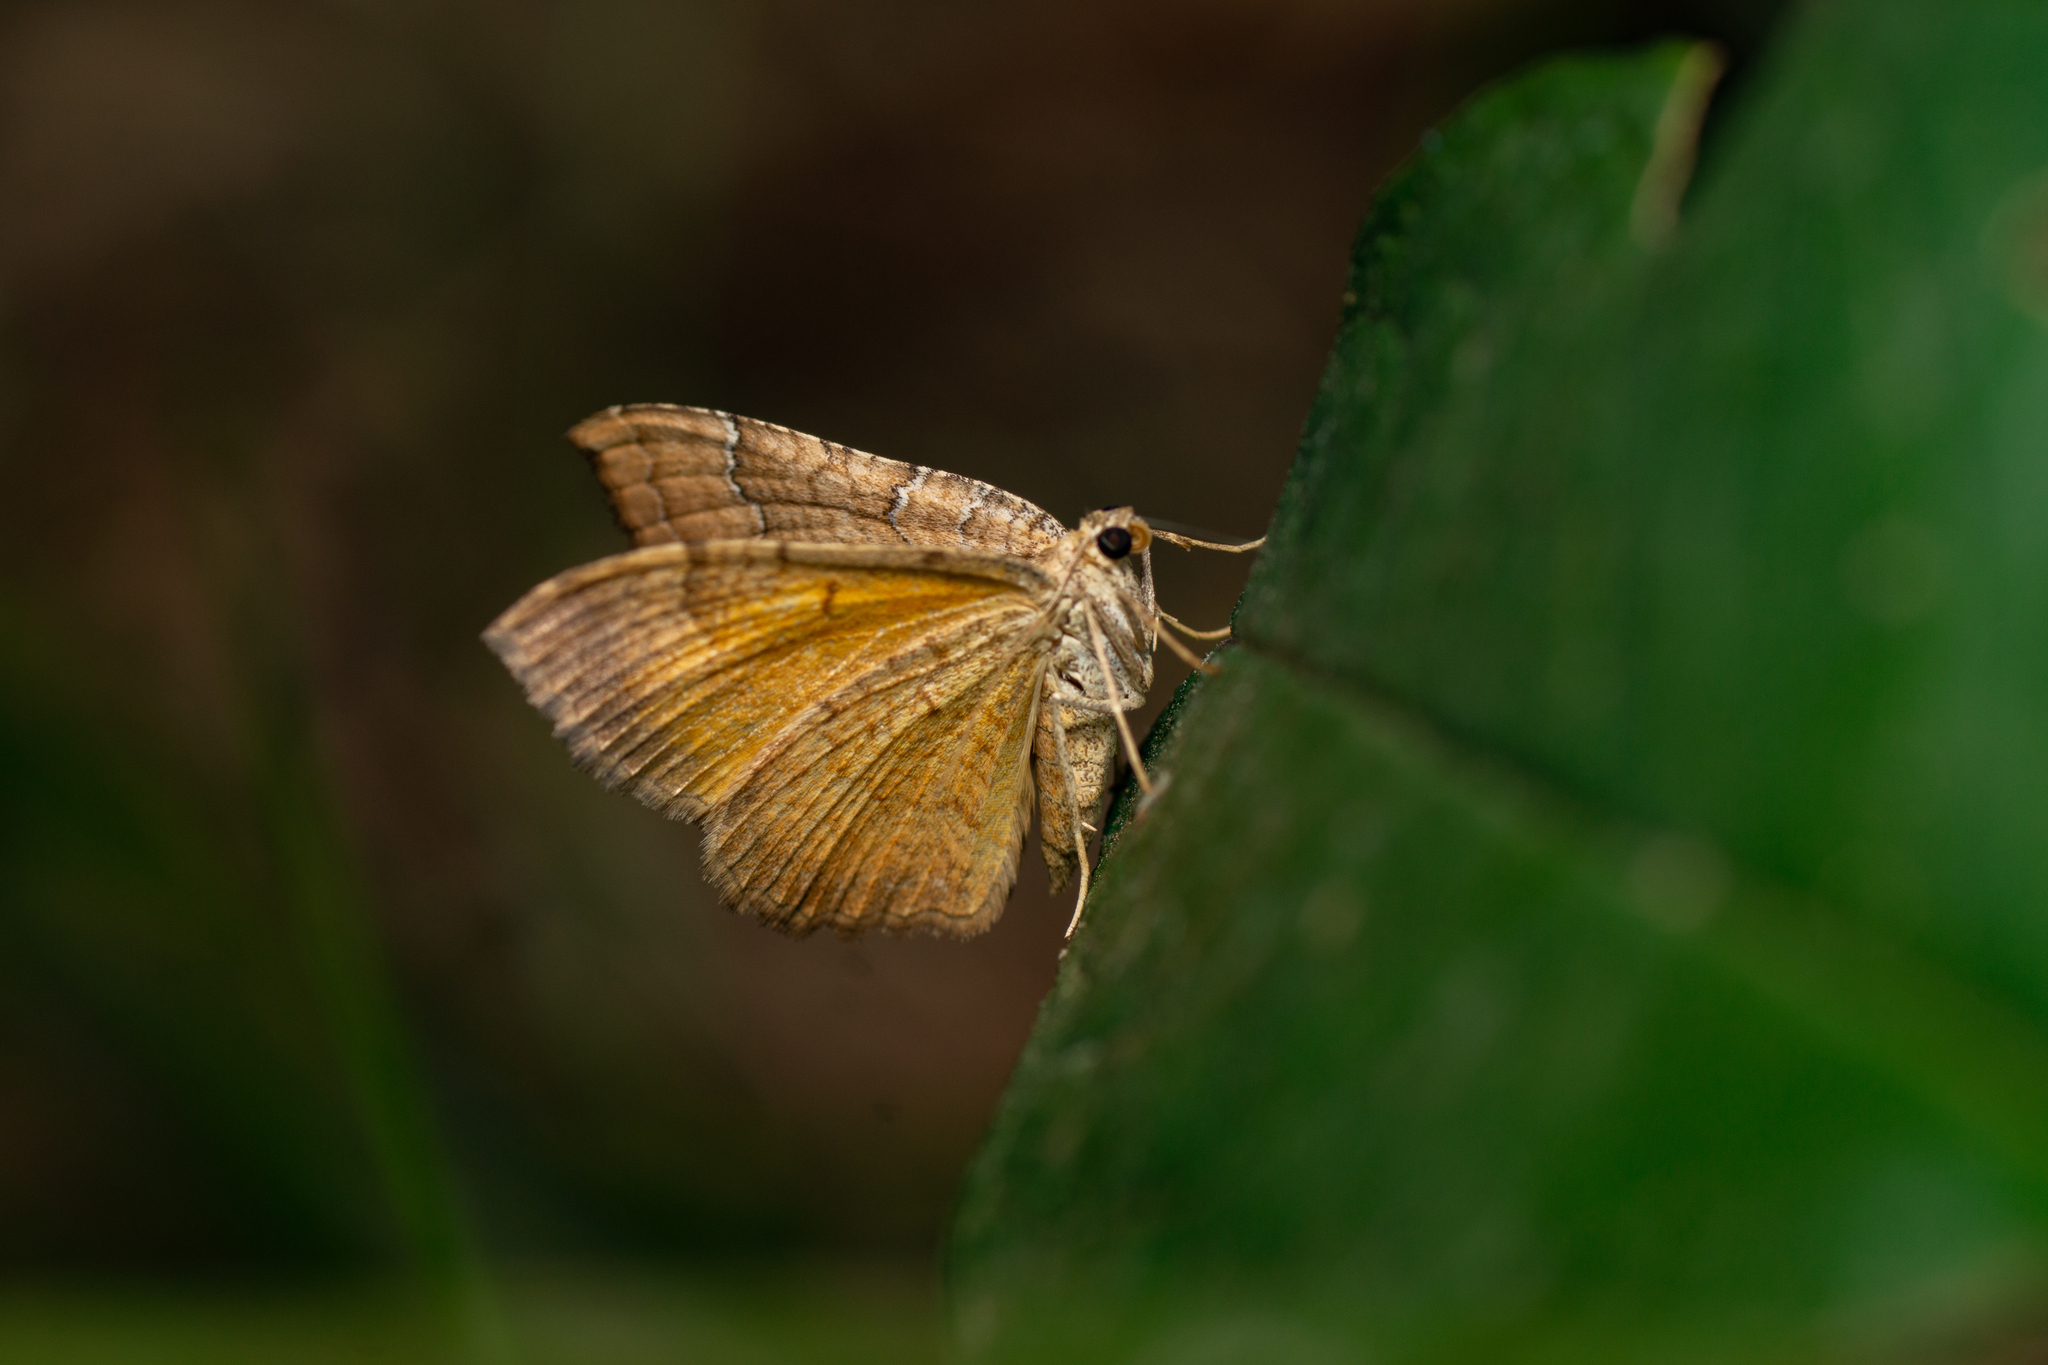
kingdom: Animalia
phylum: Arthropoda
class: Insecta
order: Lepidoptera
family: Geometridae
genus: Camptogramma
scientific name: Camptogramma bilineata
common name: Yellow shell
